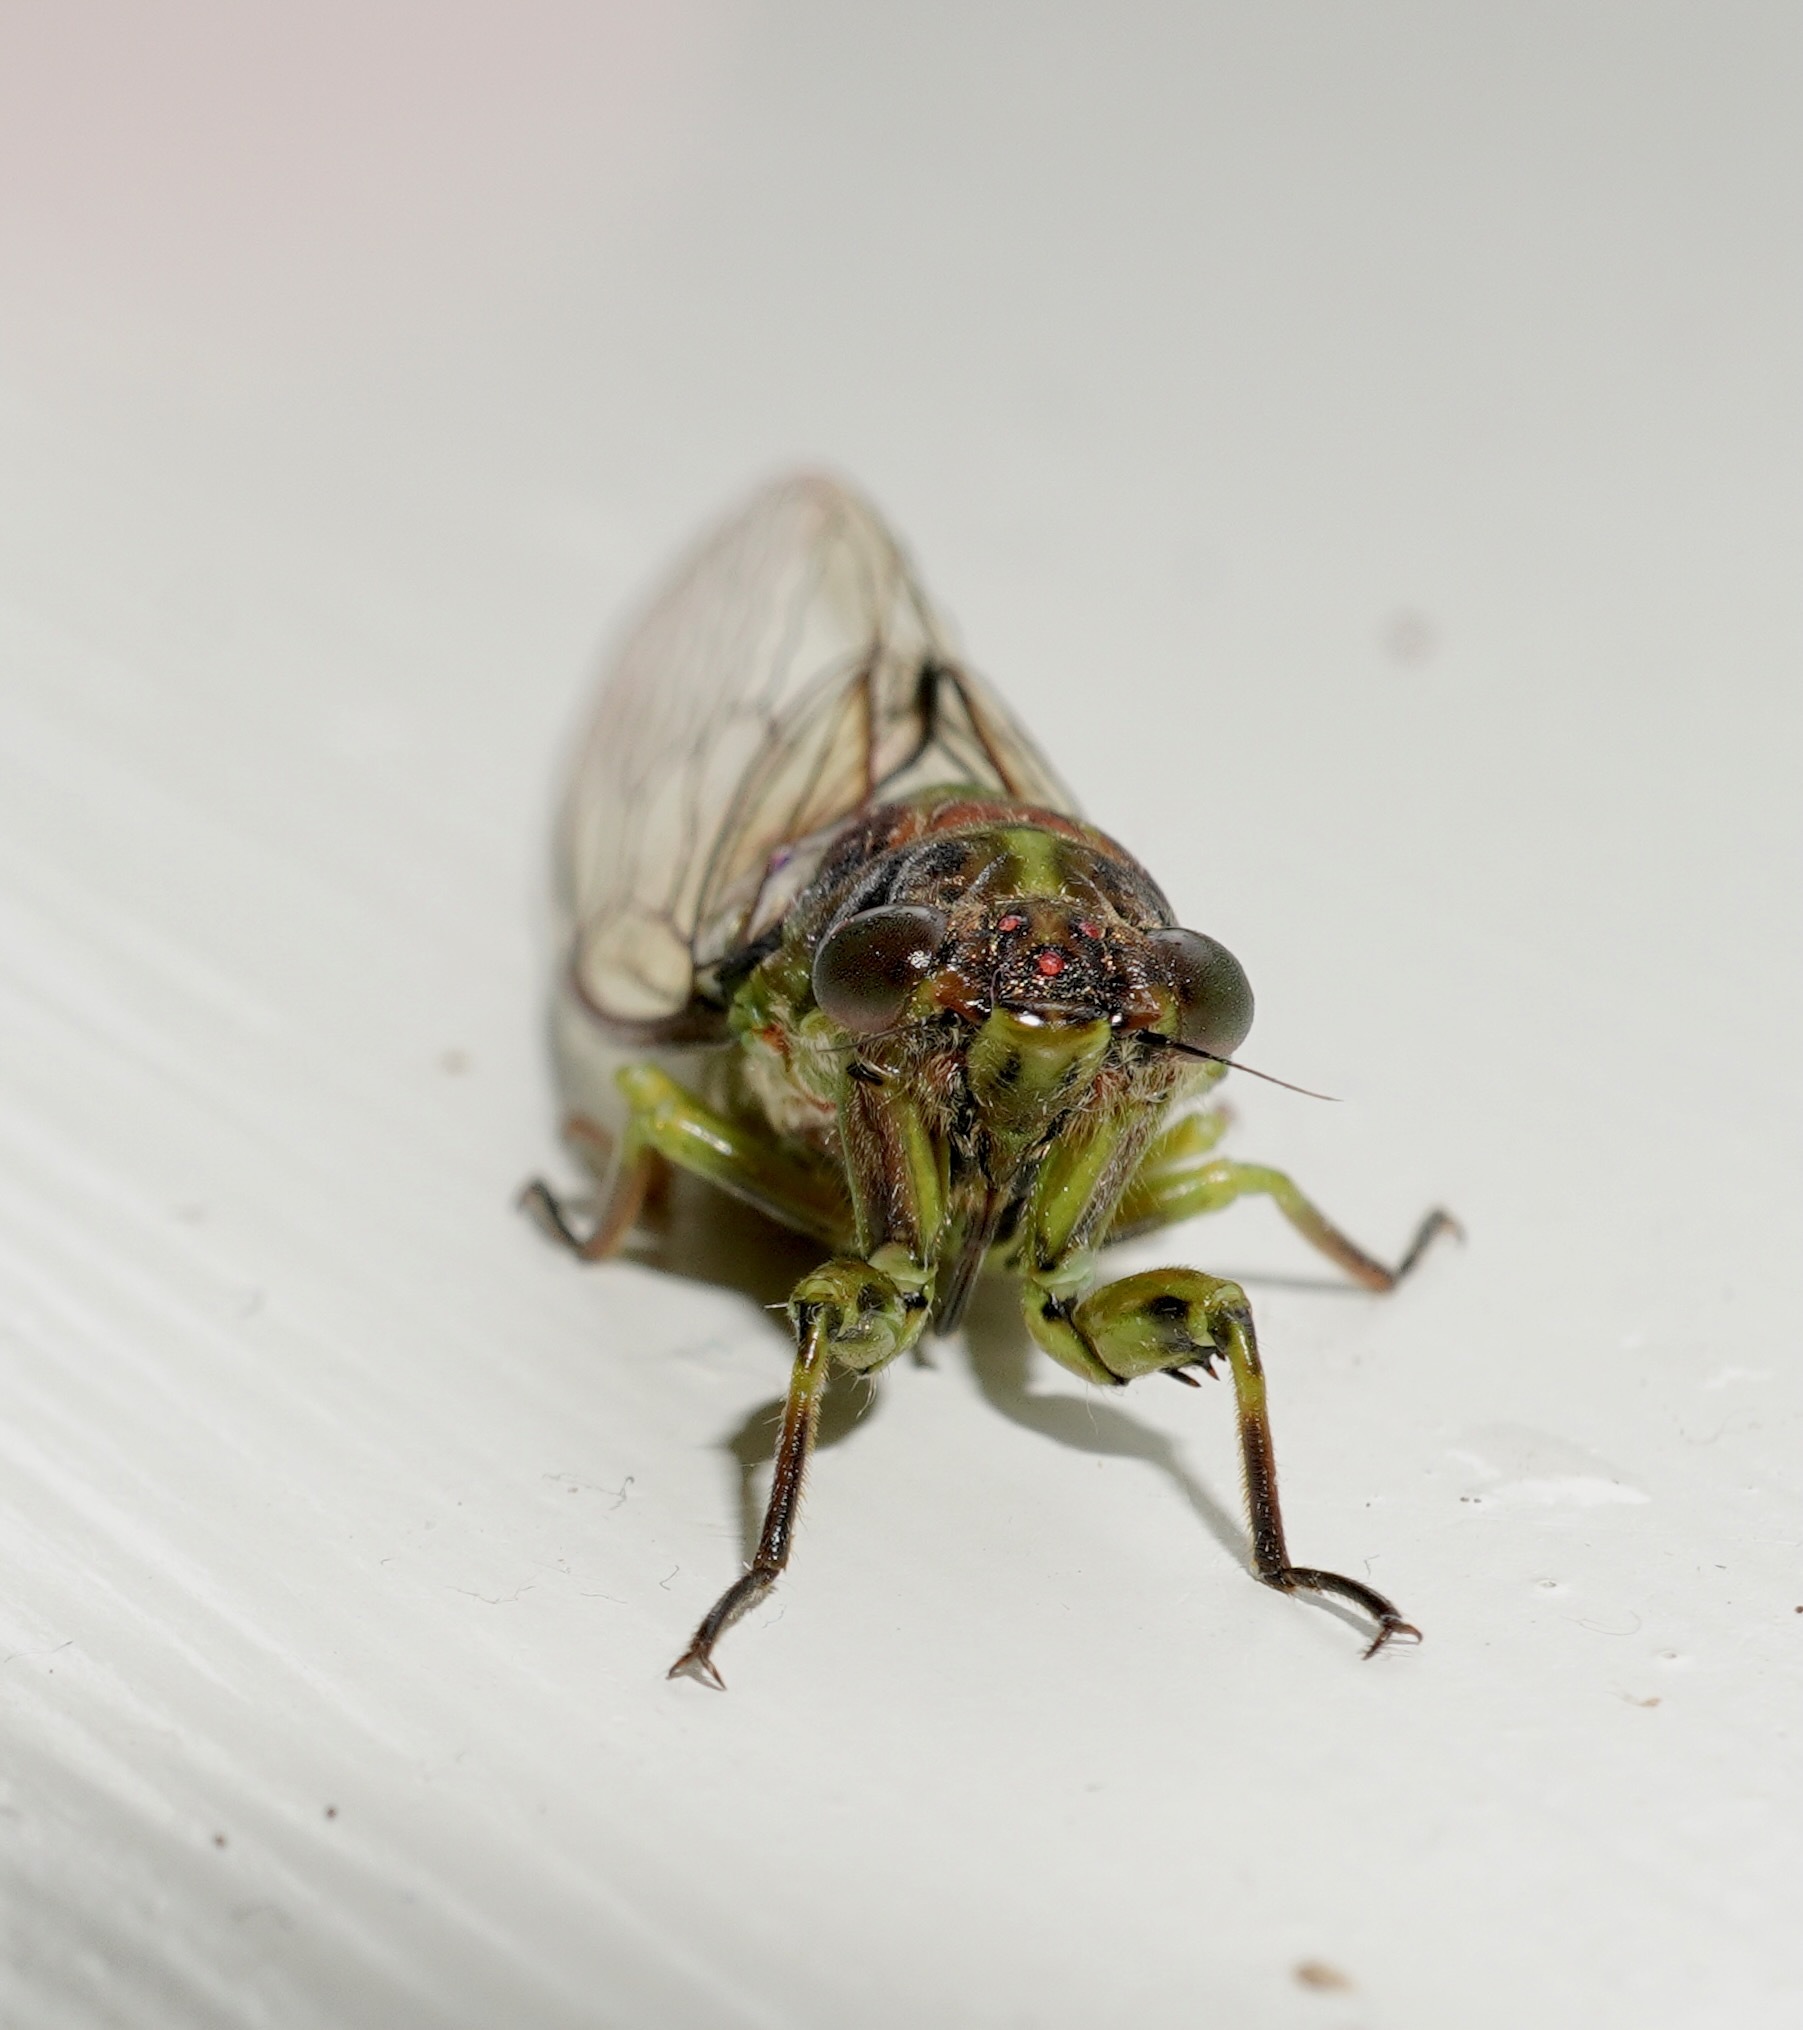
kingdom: Animalia
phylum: Arthropoda
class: Insecta
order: Hemiptera
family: Cicadidae
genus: Kikihia
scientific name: Kikihia scutellaris
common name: Lesser bronze cicada
